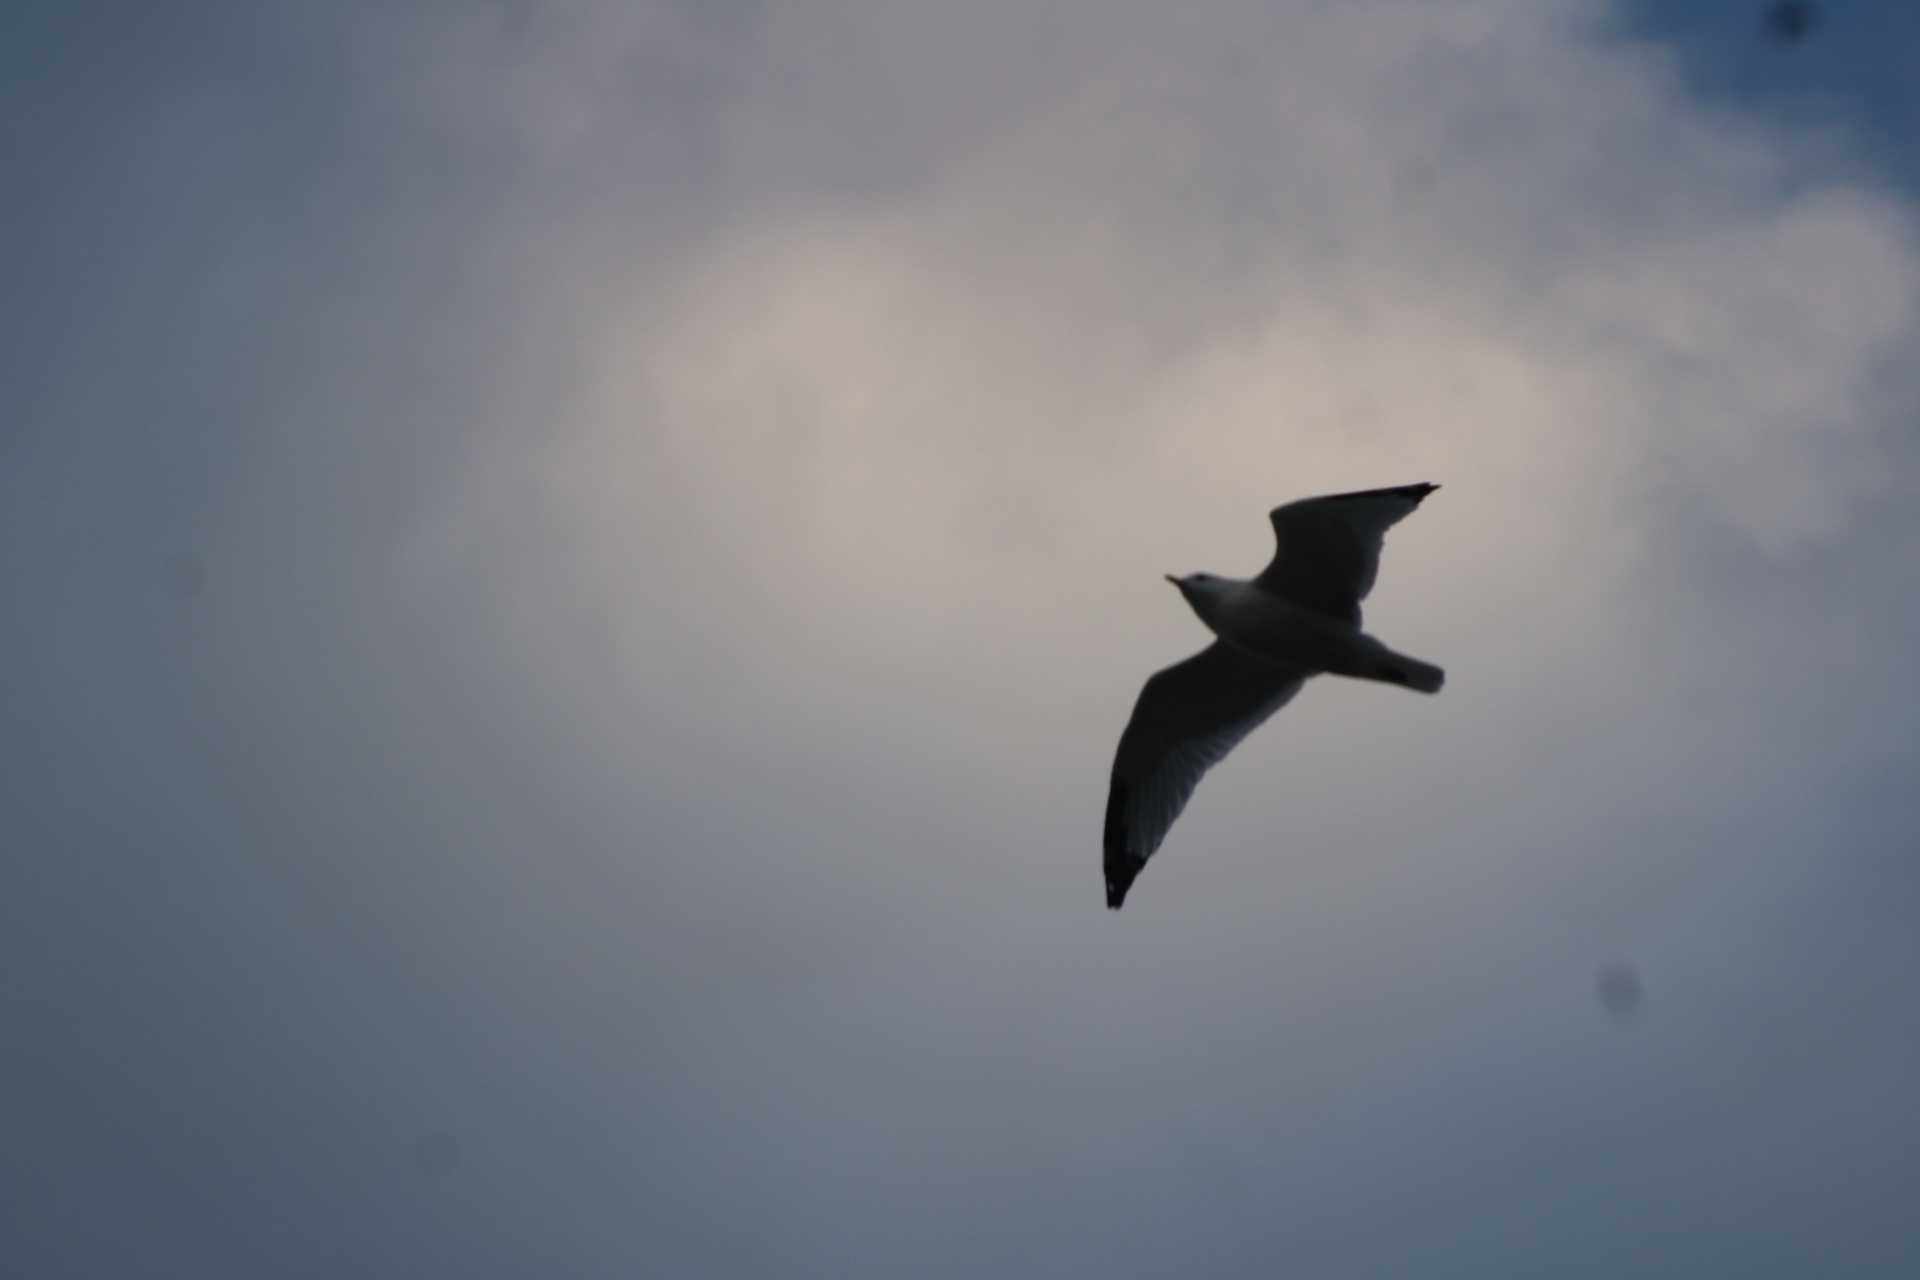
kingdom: Animalia
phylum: Chordata
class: Aves
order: Charadriiformes
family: Laridae
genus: Larus
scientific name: Larus delawarensis
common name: Ring-billed gull
